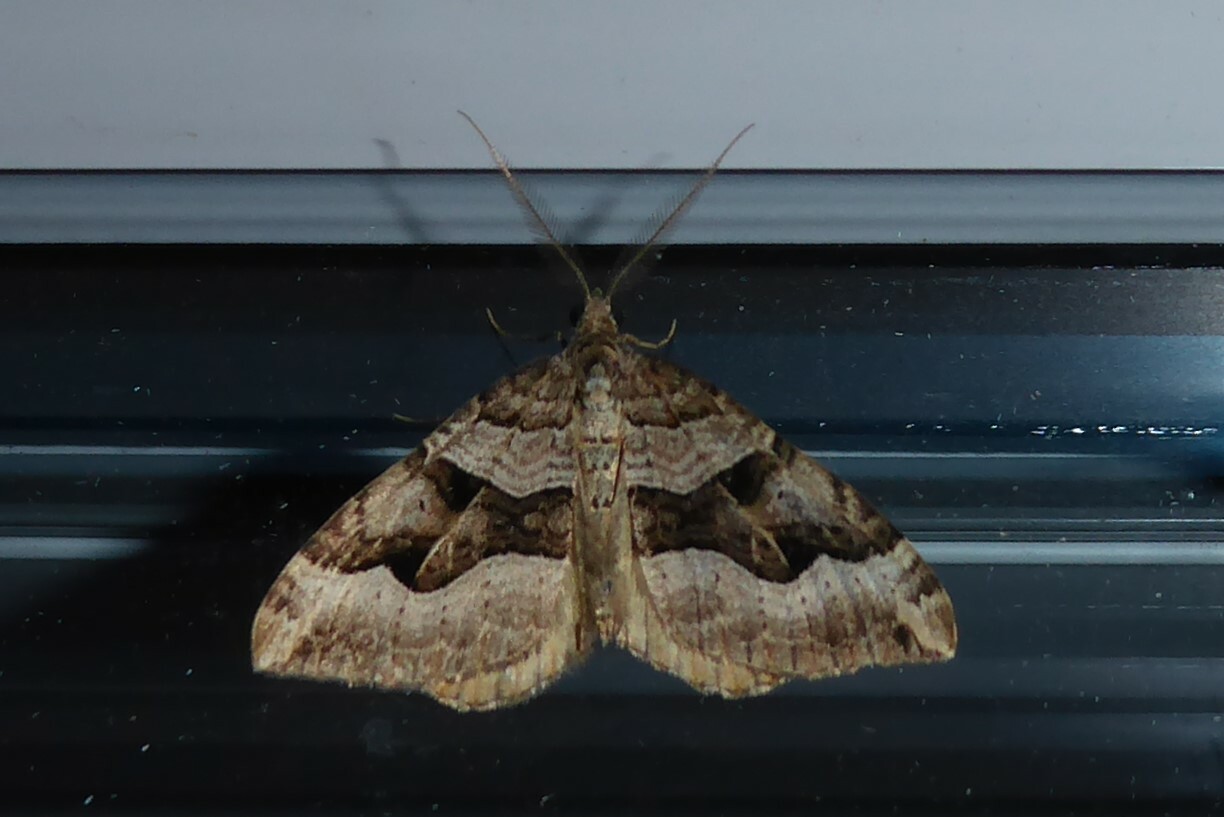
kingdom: Animalia
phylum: Arthropoda
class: Insecta
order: Lepidoptera
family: Geometridae
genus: Xanthorhoe
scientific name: Xanthorhoe semifissata
